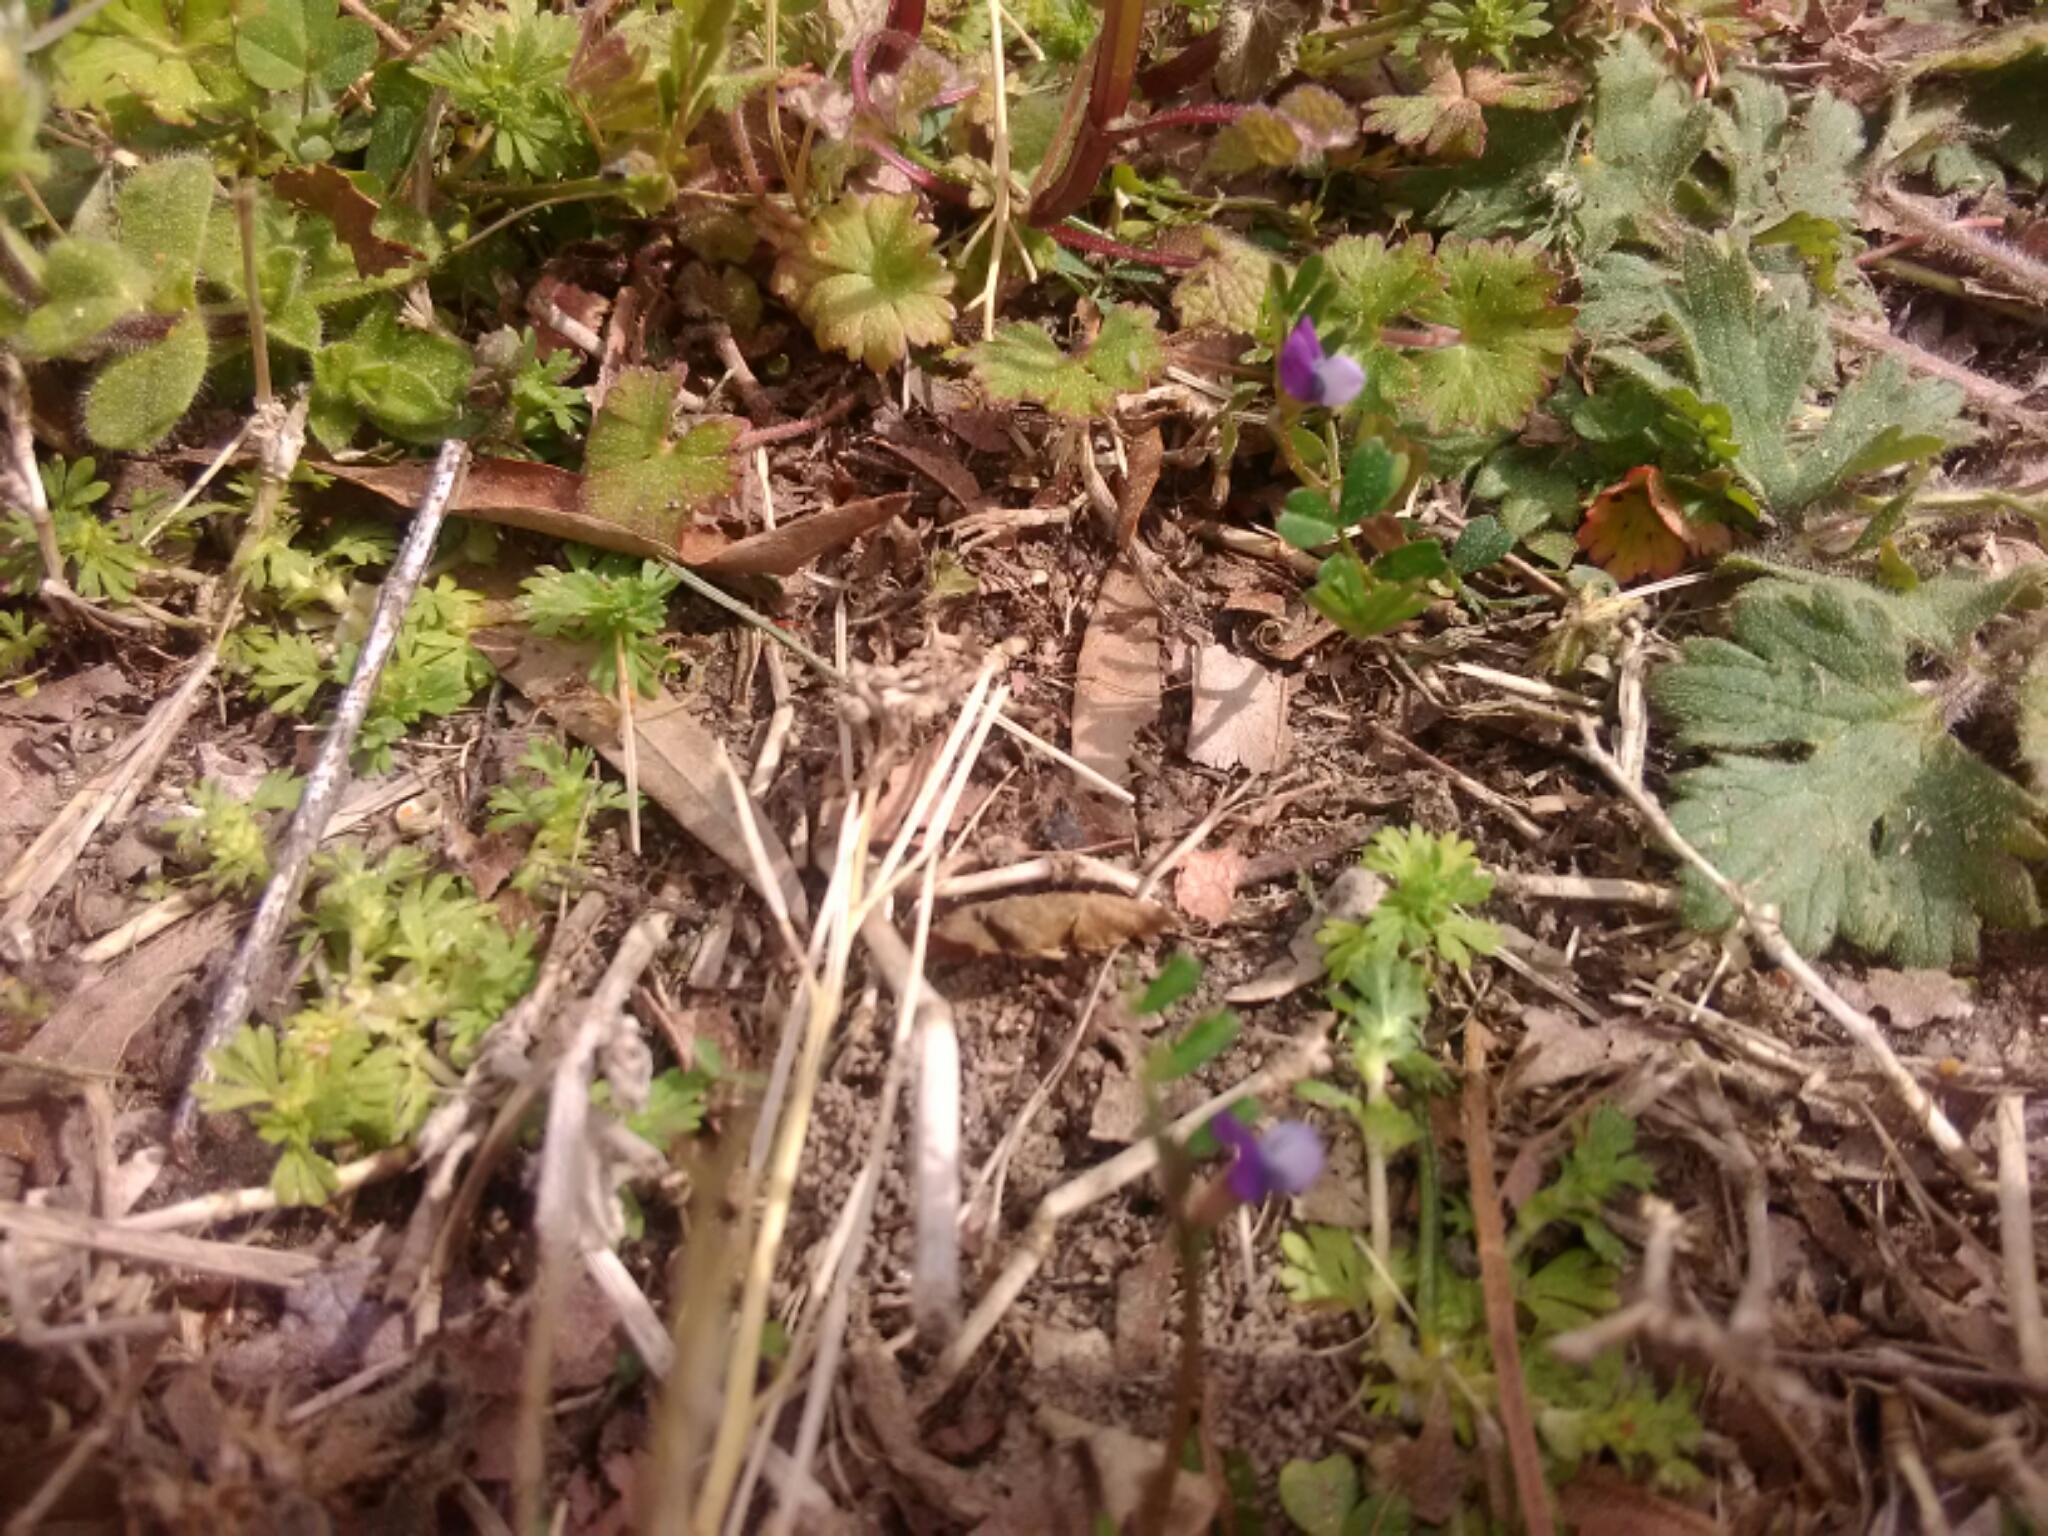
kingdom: Plantae
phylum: Tracheophyta
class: Magnoliopsida
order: Fabales
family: Fabaceae
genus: Vicia
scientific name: Vicia lathyroides
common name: Spring vetch
